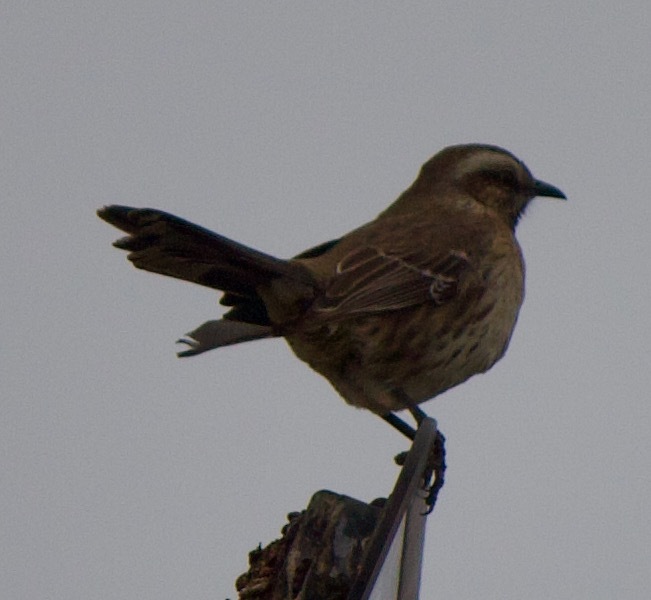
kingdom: Animalia
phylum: Chordata
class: Aves
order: Passeriformes
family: Mimidae
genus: Mimus
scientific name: Mimus thenca
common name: Chilean mockingbird
